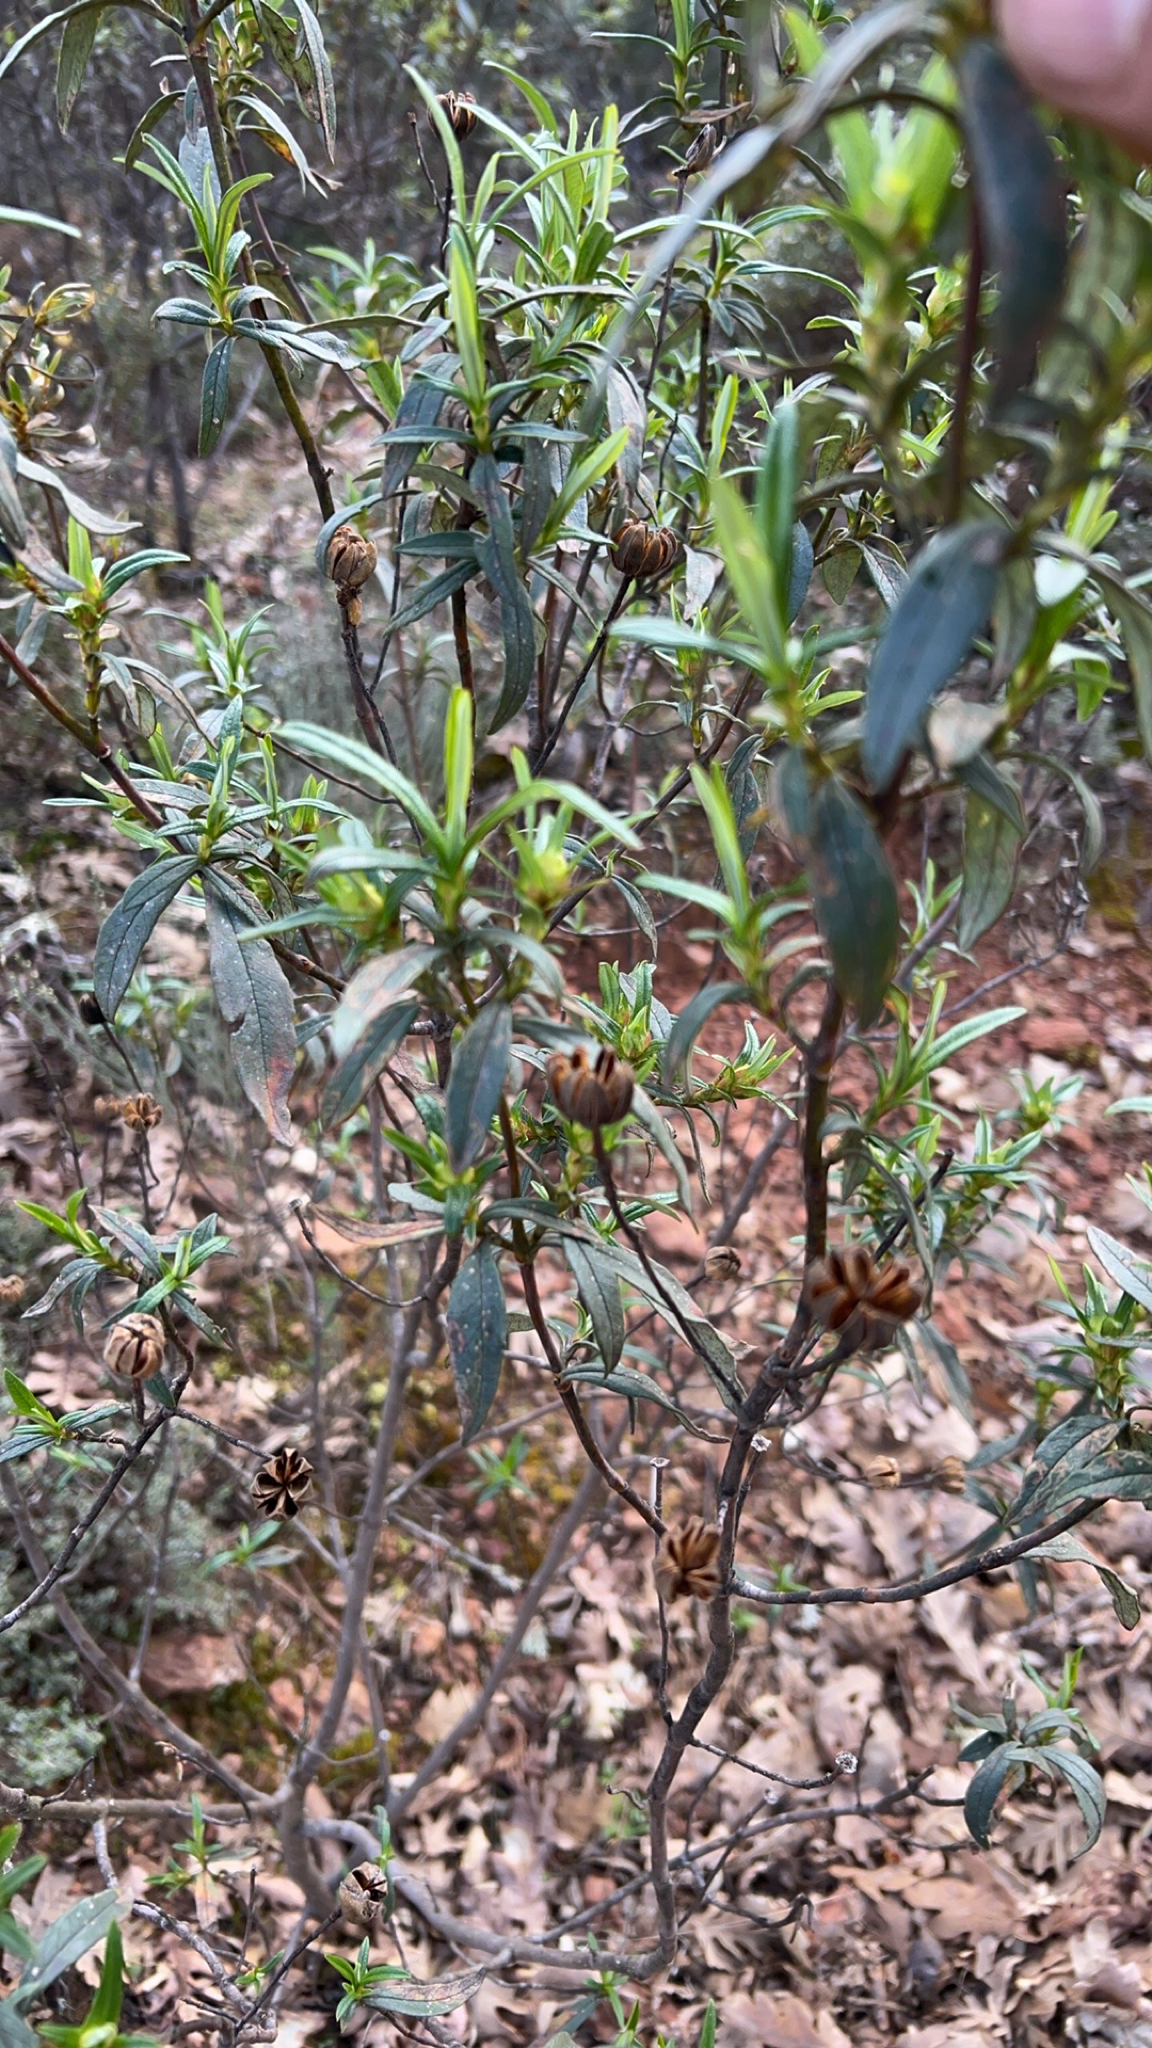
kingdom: Plantae
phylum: Tracheophyta
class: Magnoliopsida
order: Malvales
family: Cistaceae
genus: Cistus
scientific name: Cistus ladanifer
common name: Common gum cistus
